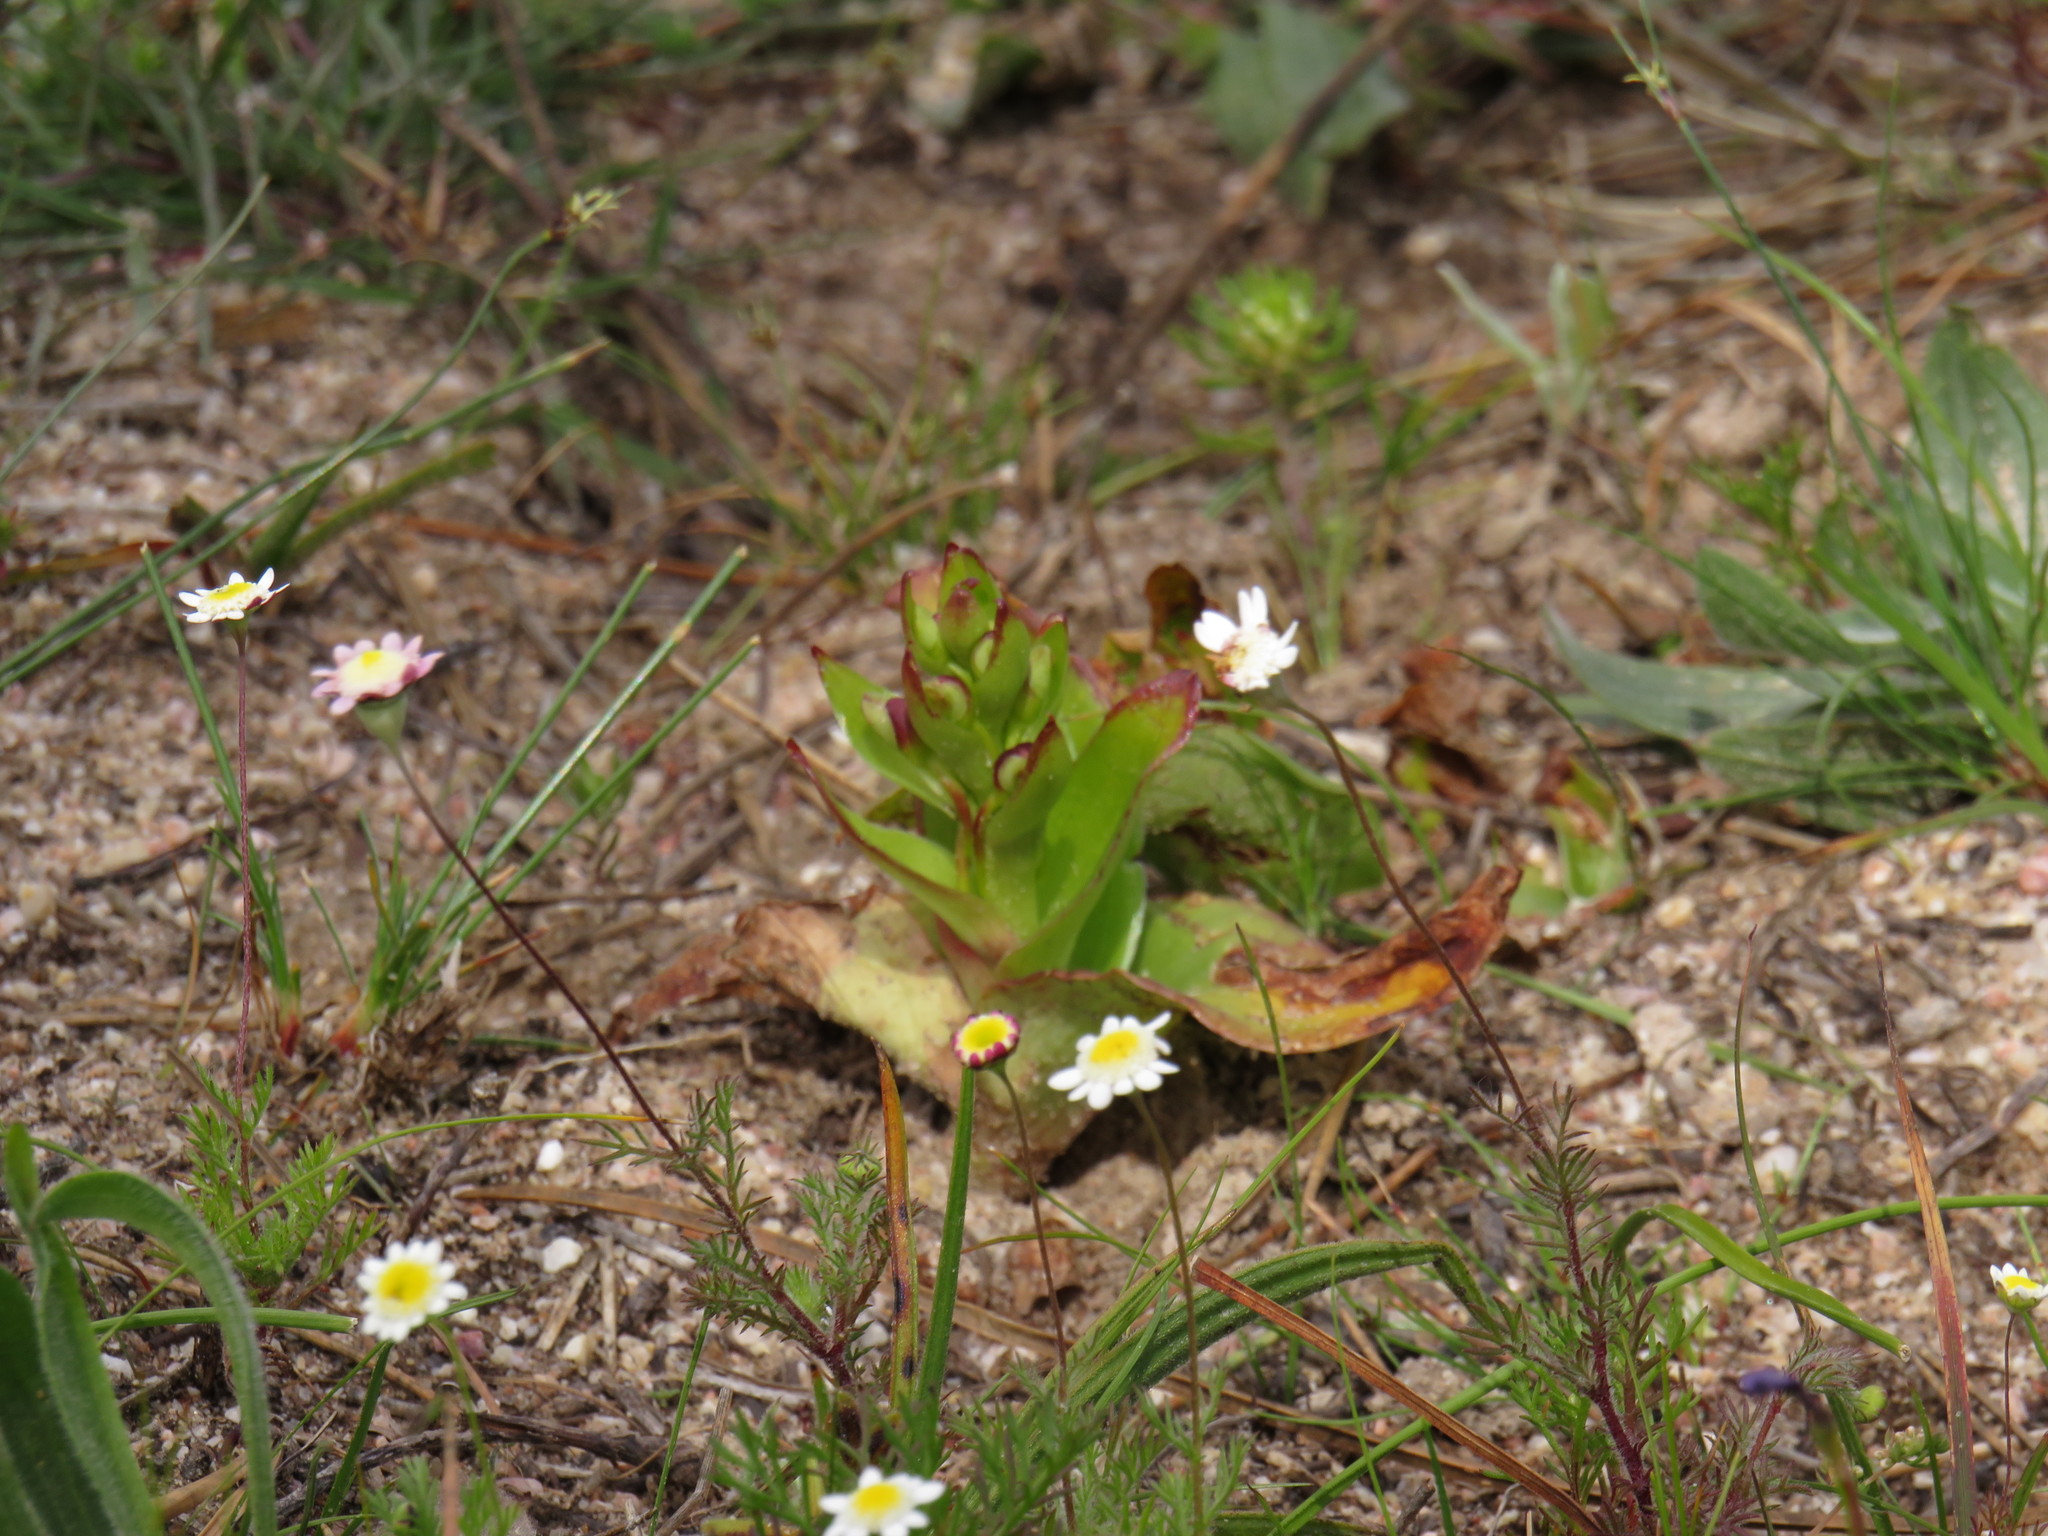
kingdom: Plantae
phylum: Tracheophyta
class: Liliopsida
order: Asparagales
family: Orchidaceae
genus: Satyrium
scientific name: Satyrium odorum
